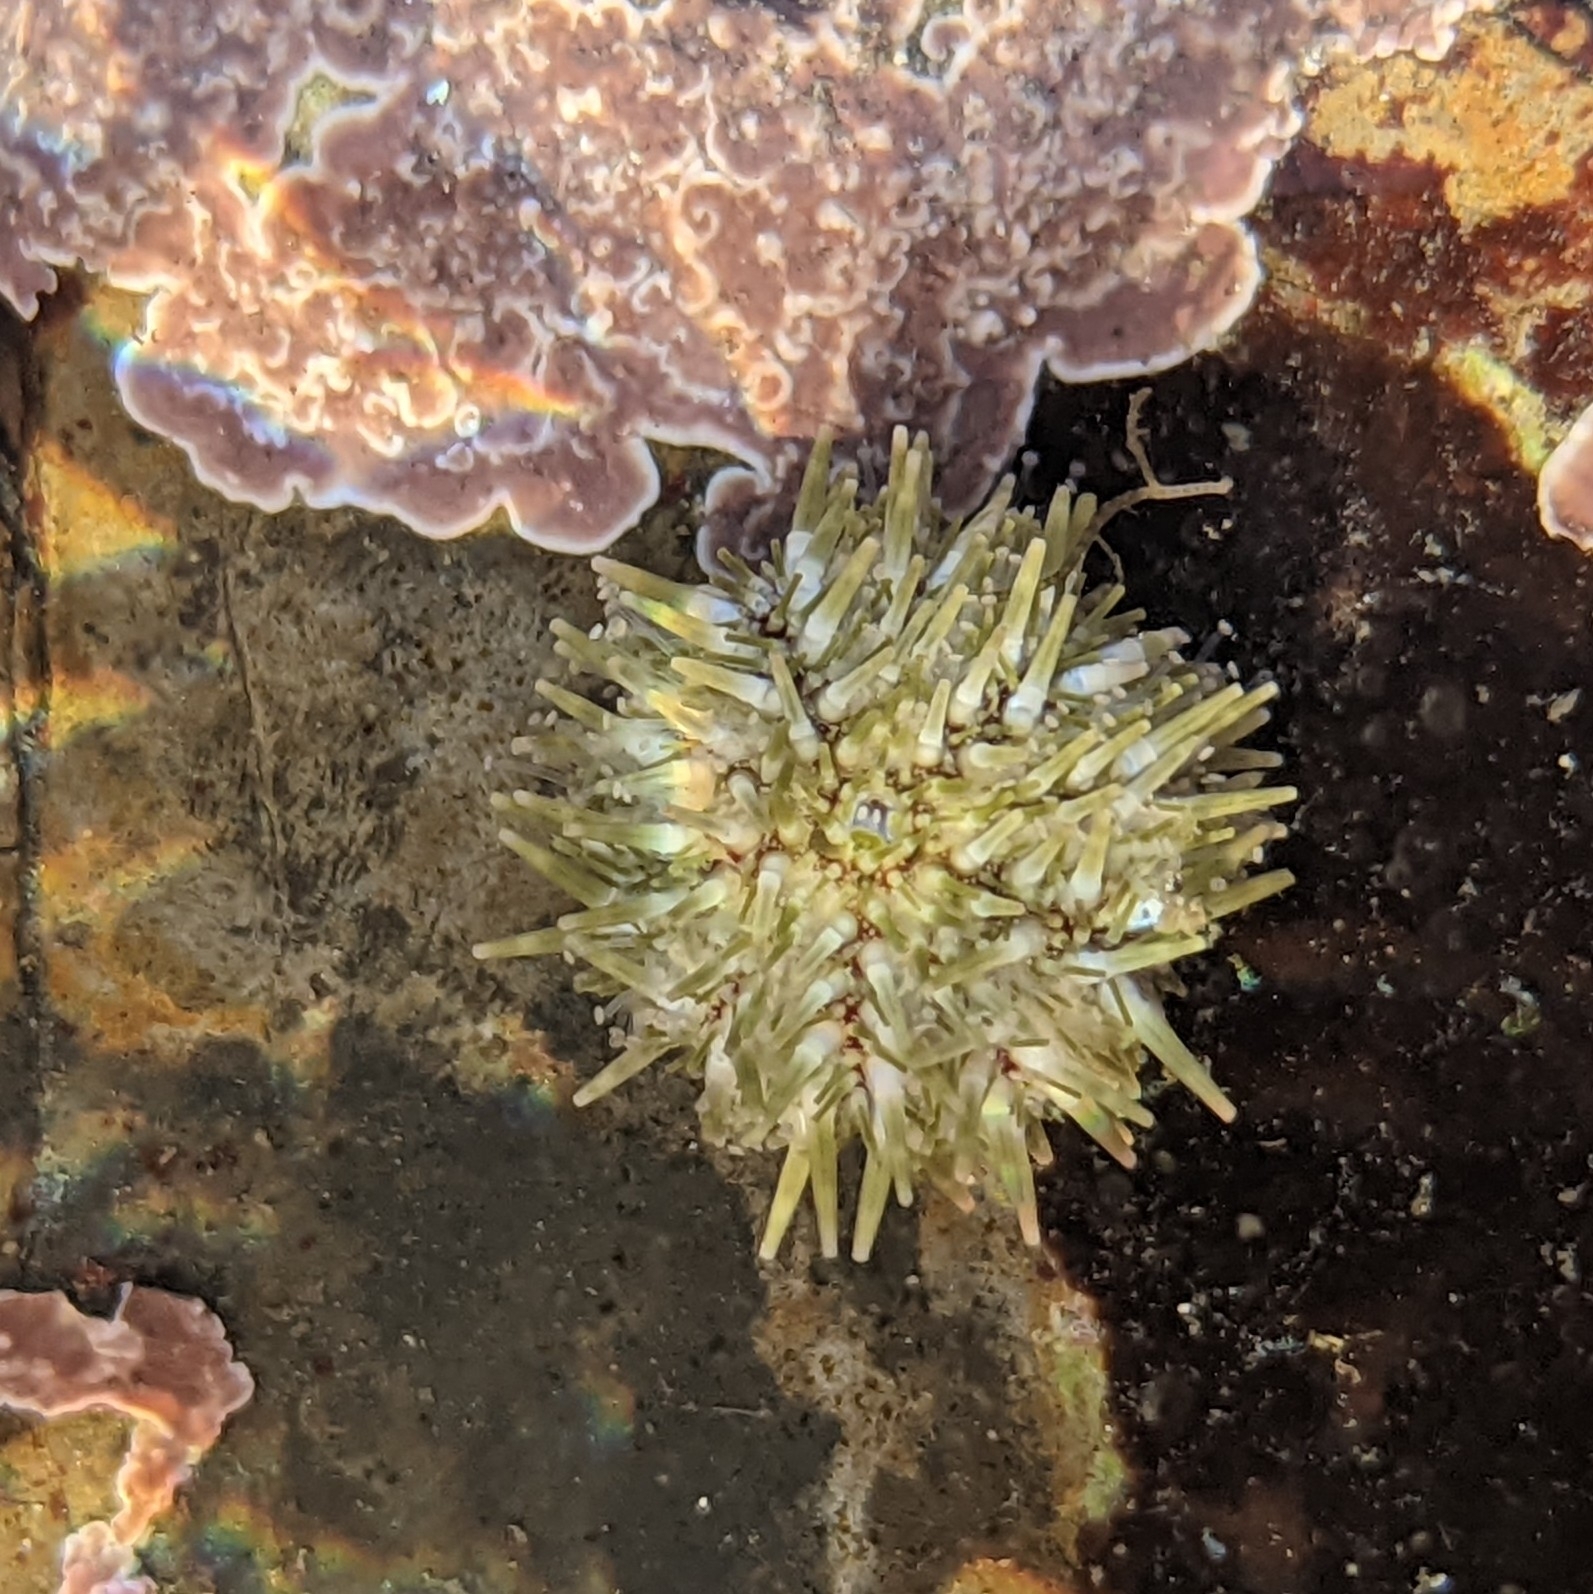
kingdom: Animalia
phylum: Echinodermata
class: Echinoidea
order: Camarodonta
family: Strongylocentrotidae
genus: Strongylocentrotus
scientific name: Strongylocentrotus purpuratus
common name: Purple sea urchin
